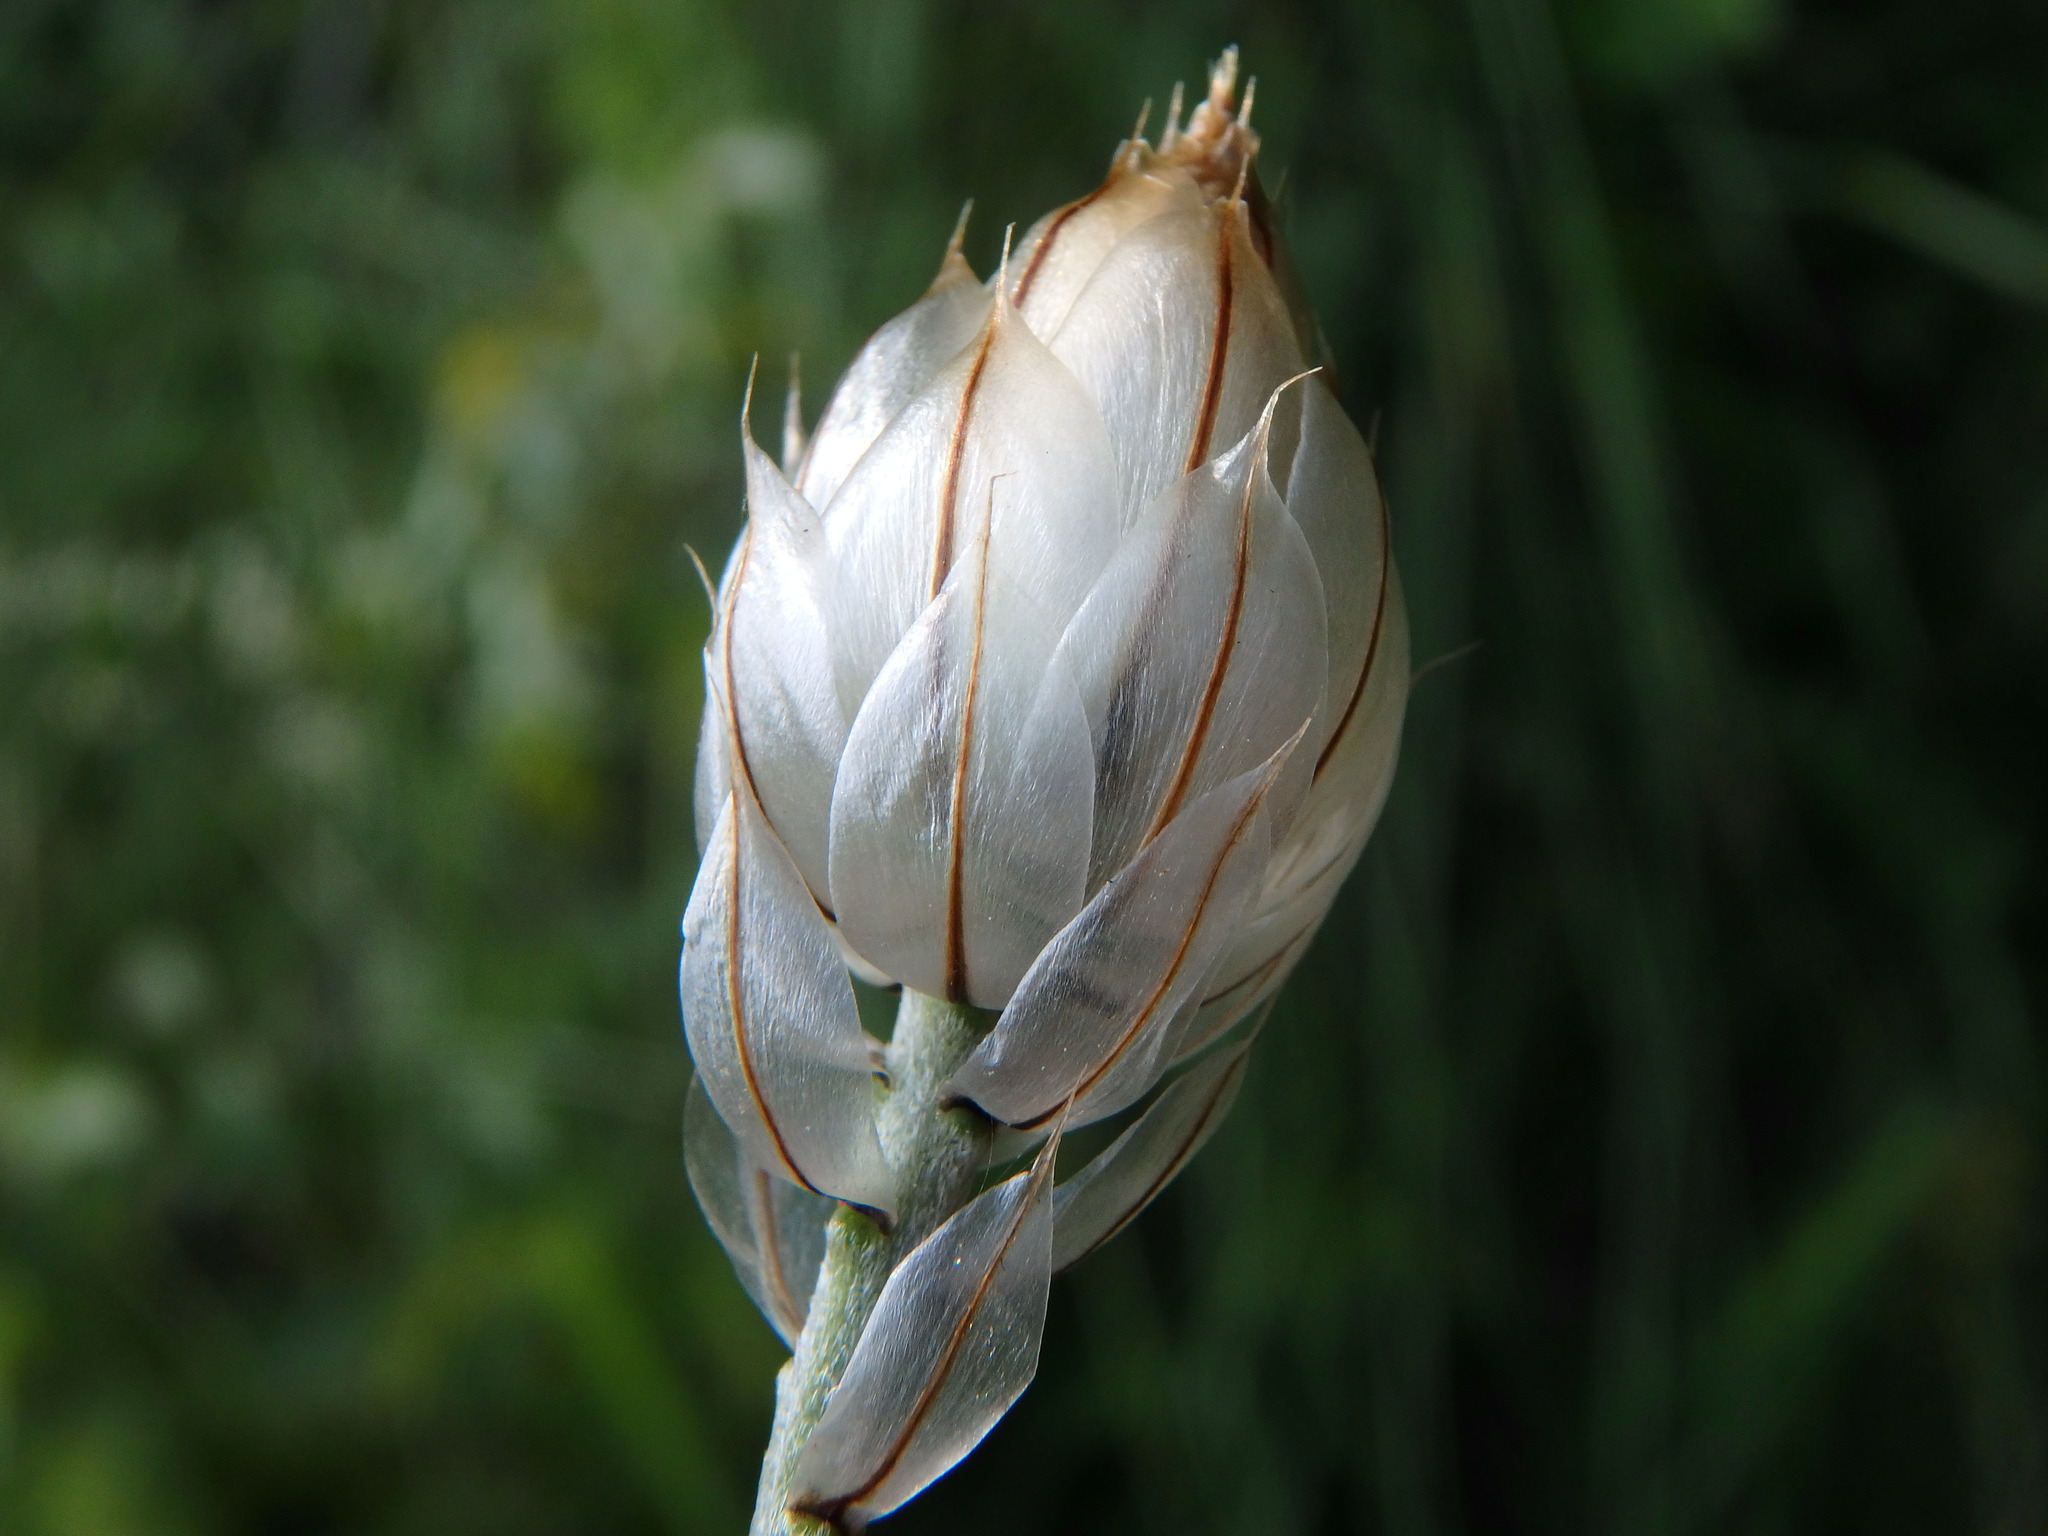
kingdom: Plantae
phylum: Tracheophyta
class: Magnoliopsida
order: Asterales
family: Asteraceae
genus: Catananche
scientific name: Catananche caerulea
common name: Blue cupidone
